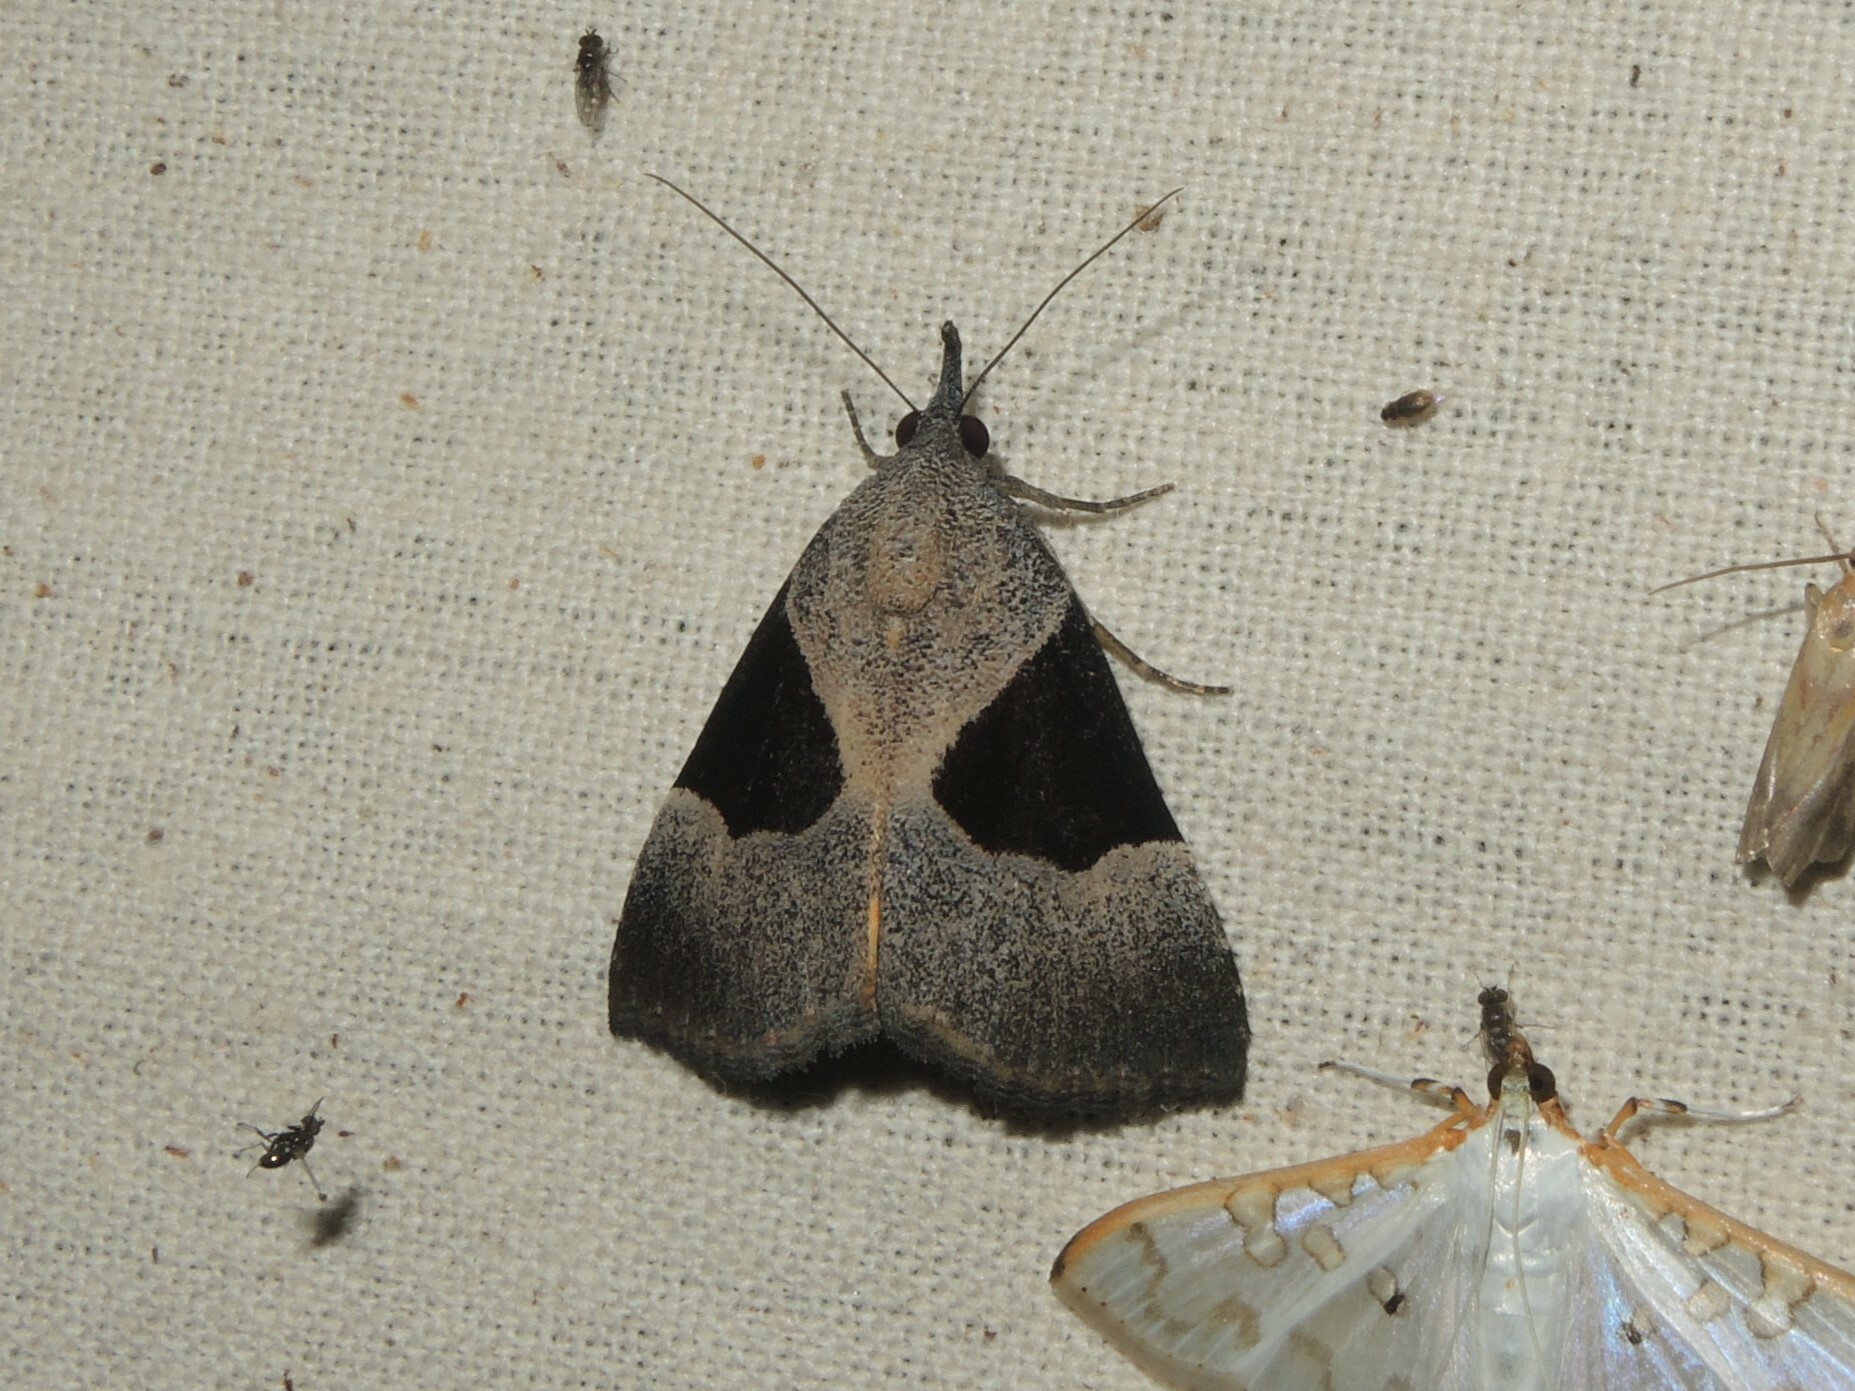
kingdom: Animalia
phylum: Arthropoda
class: Insecta
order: Lepidoptera
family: Erebidae
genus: Hypena
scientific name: Hypena Dichromia sagitta
